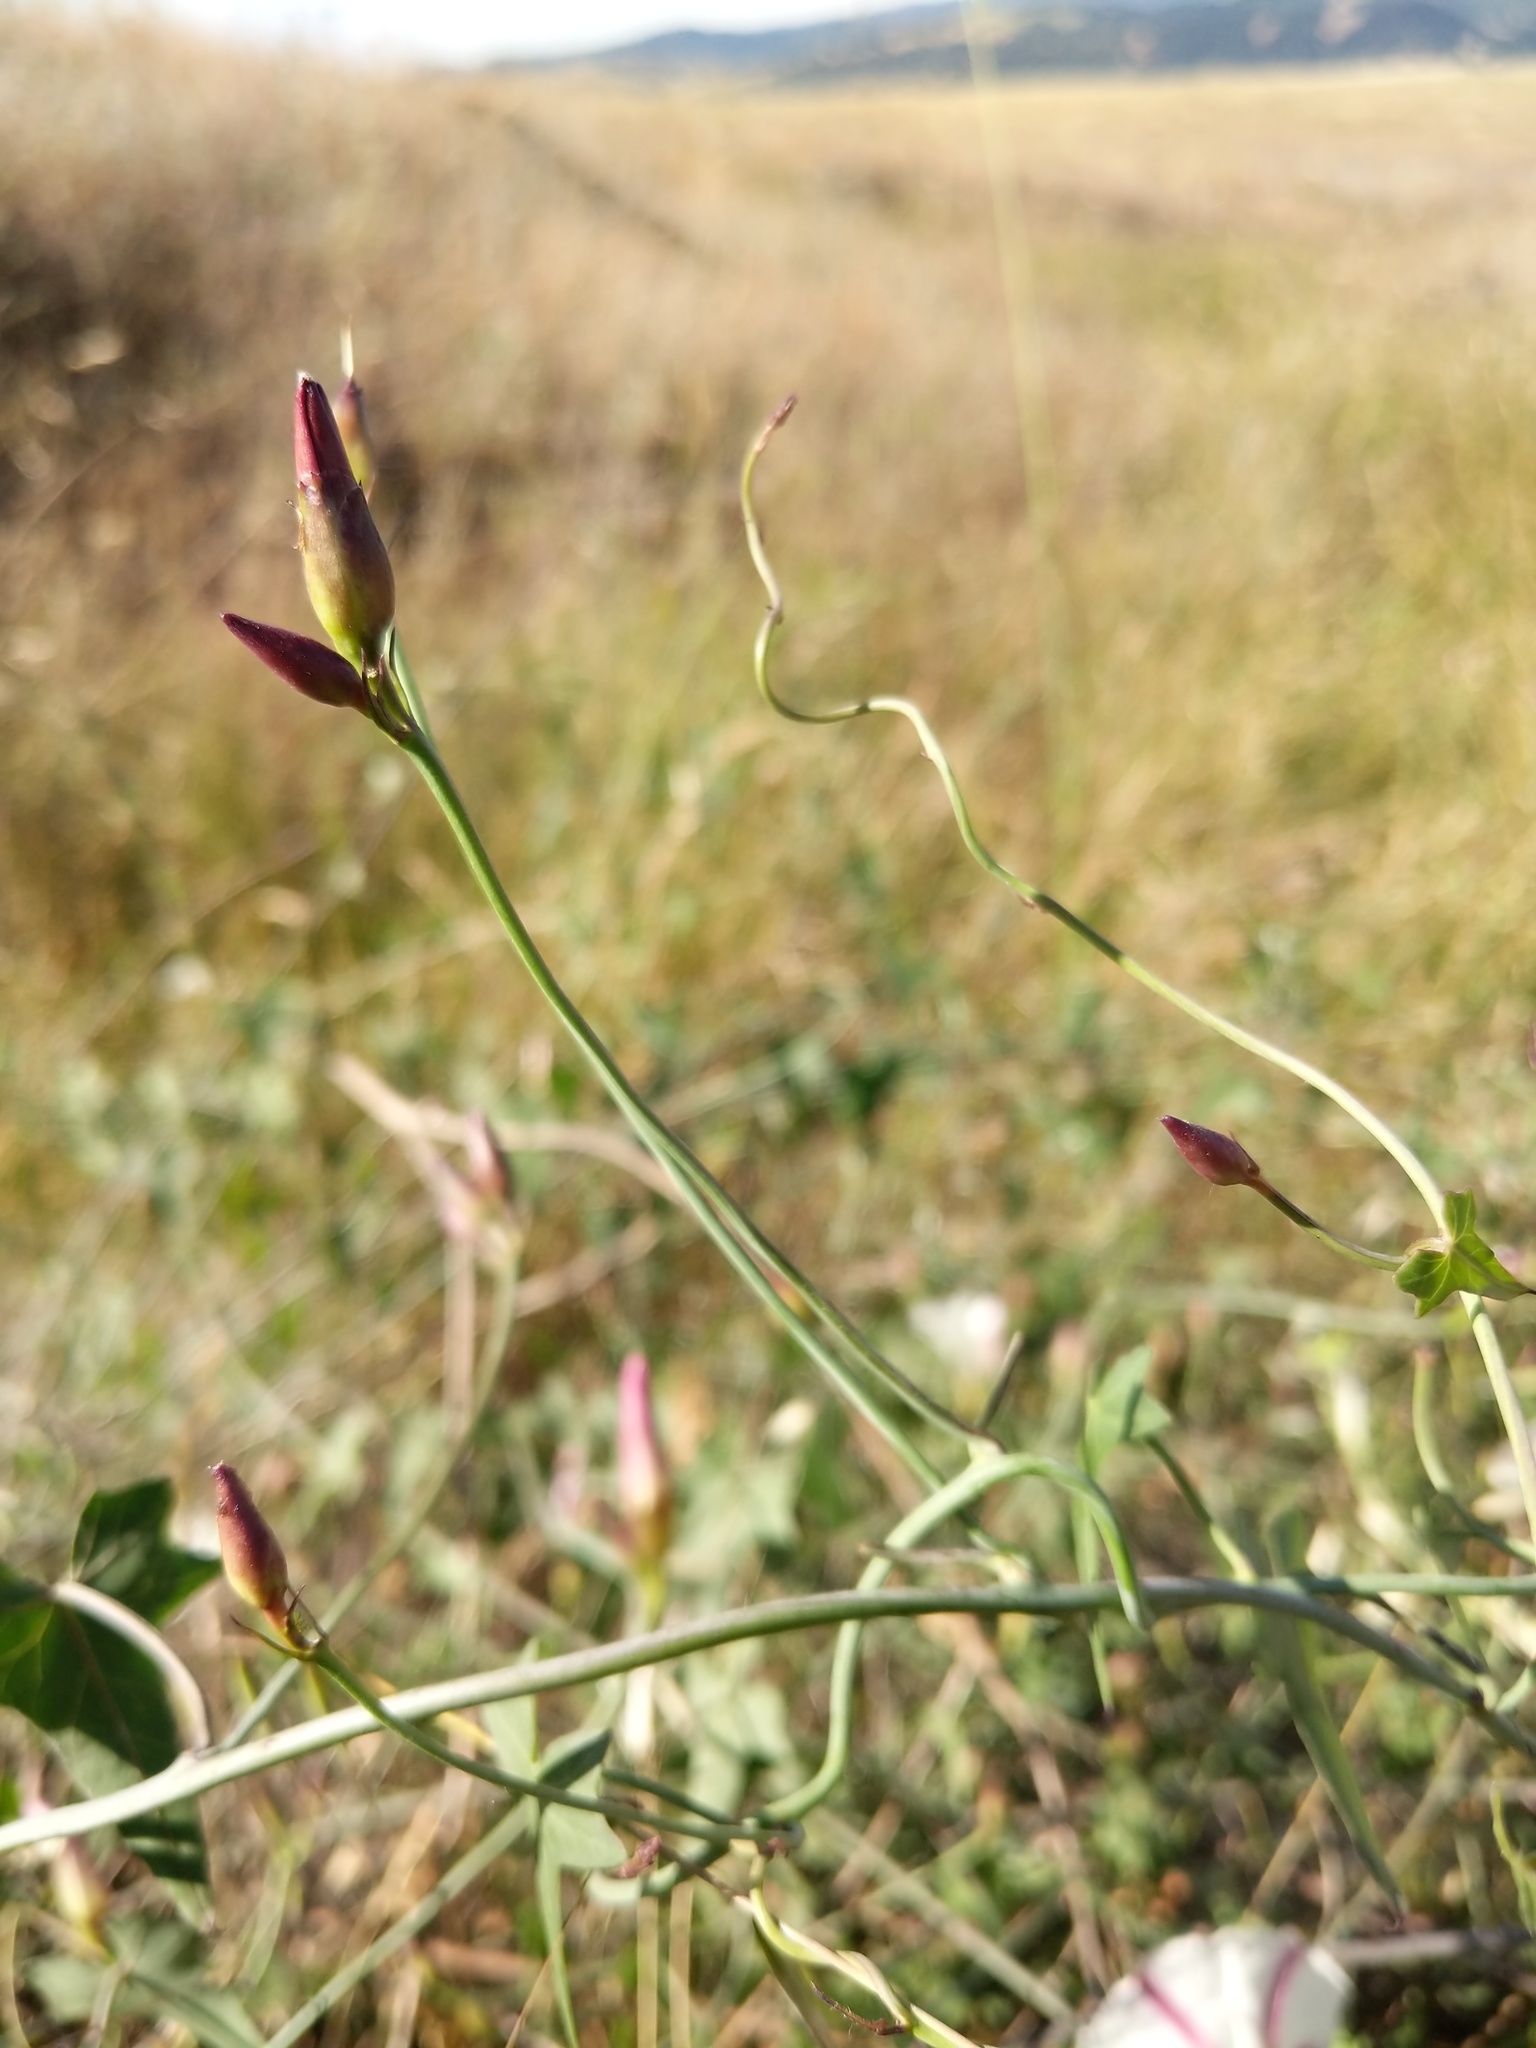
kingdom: Plantae
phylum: Tracheophyta
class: Magnoliopsida
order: Solanales
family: Convolvulaceae
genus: Calystegia
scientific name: Calystegia purpurata
